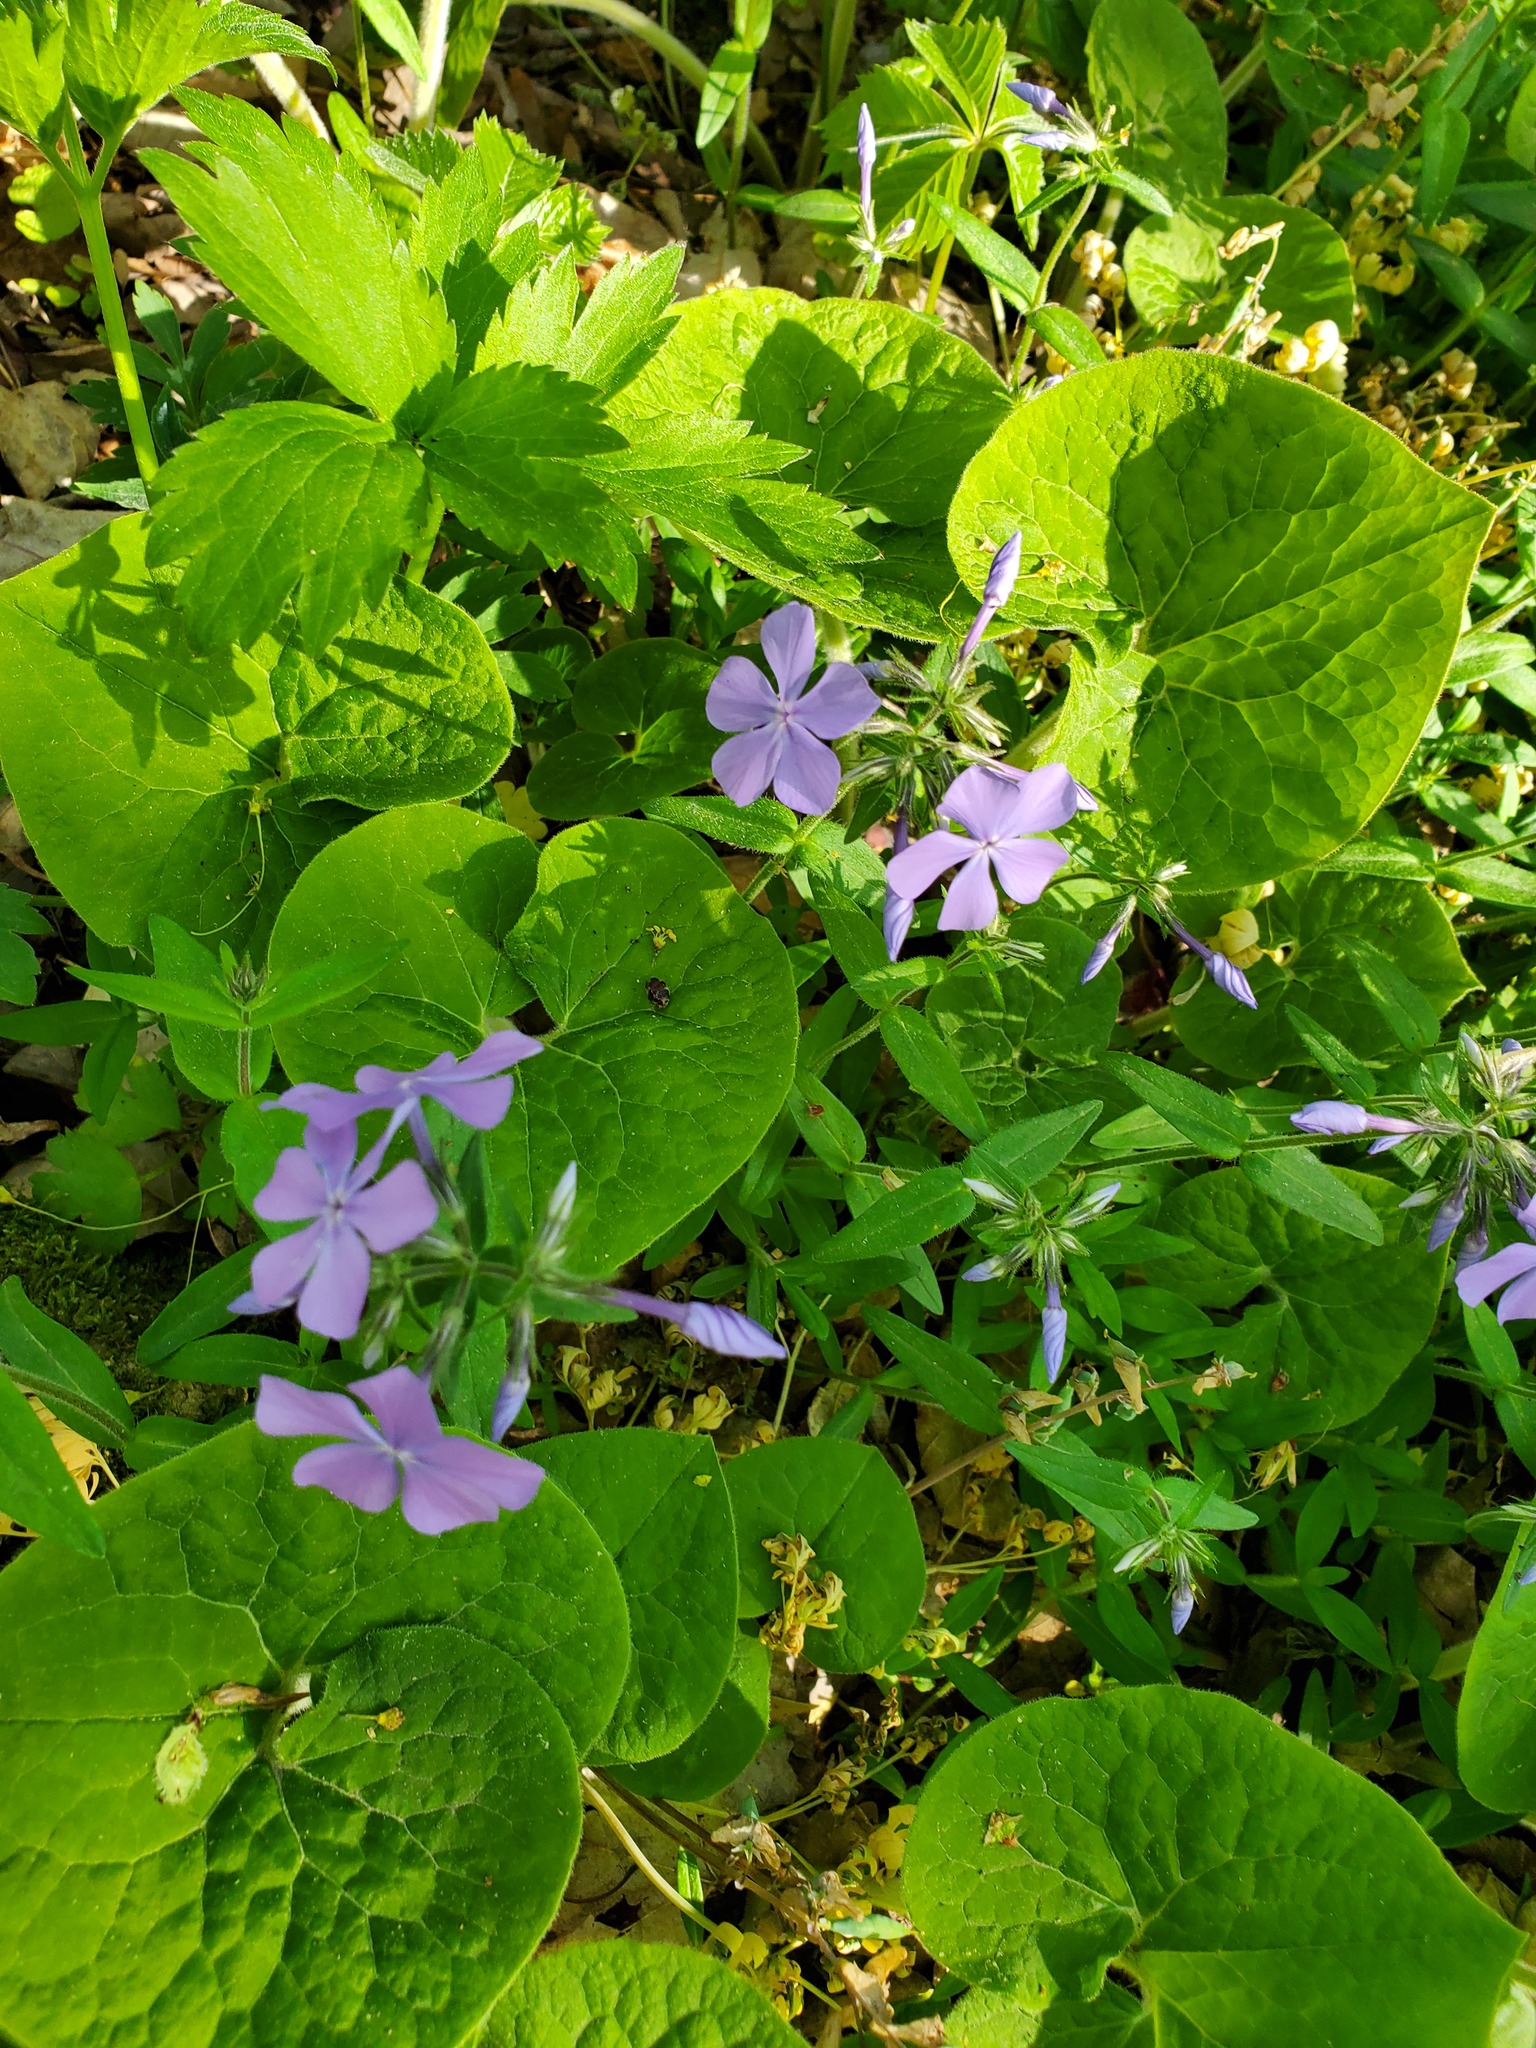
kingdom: Plantae
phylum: Tracheophyta
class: Magnoliopsida
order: Ericales
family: Polemoniaceae
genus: Phlox
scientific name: Phlox divaricata
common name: Blue phlox
